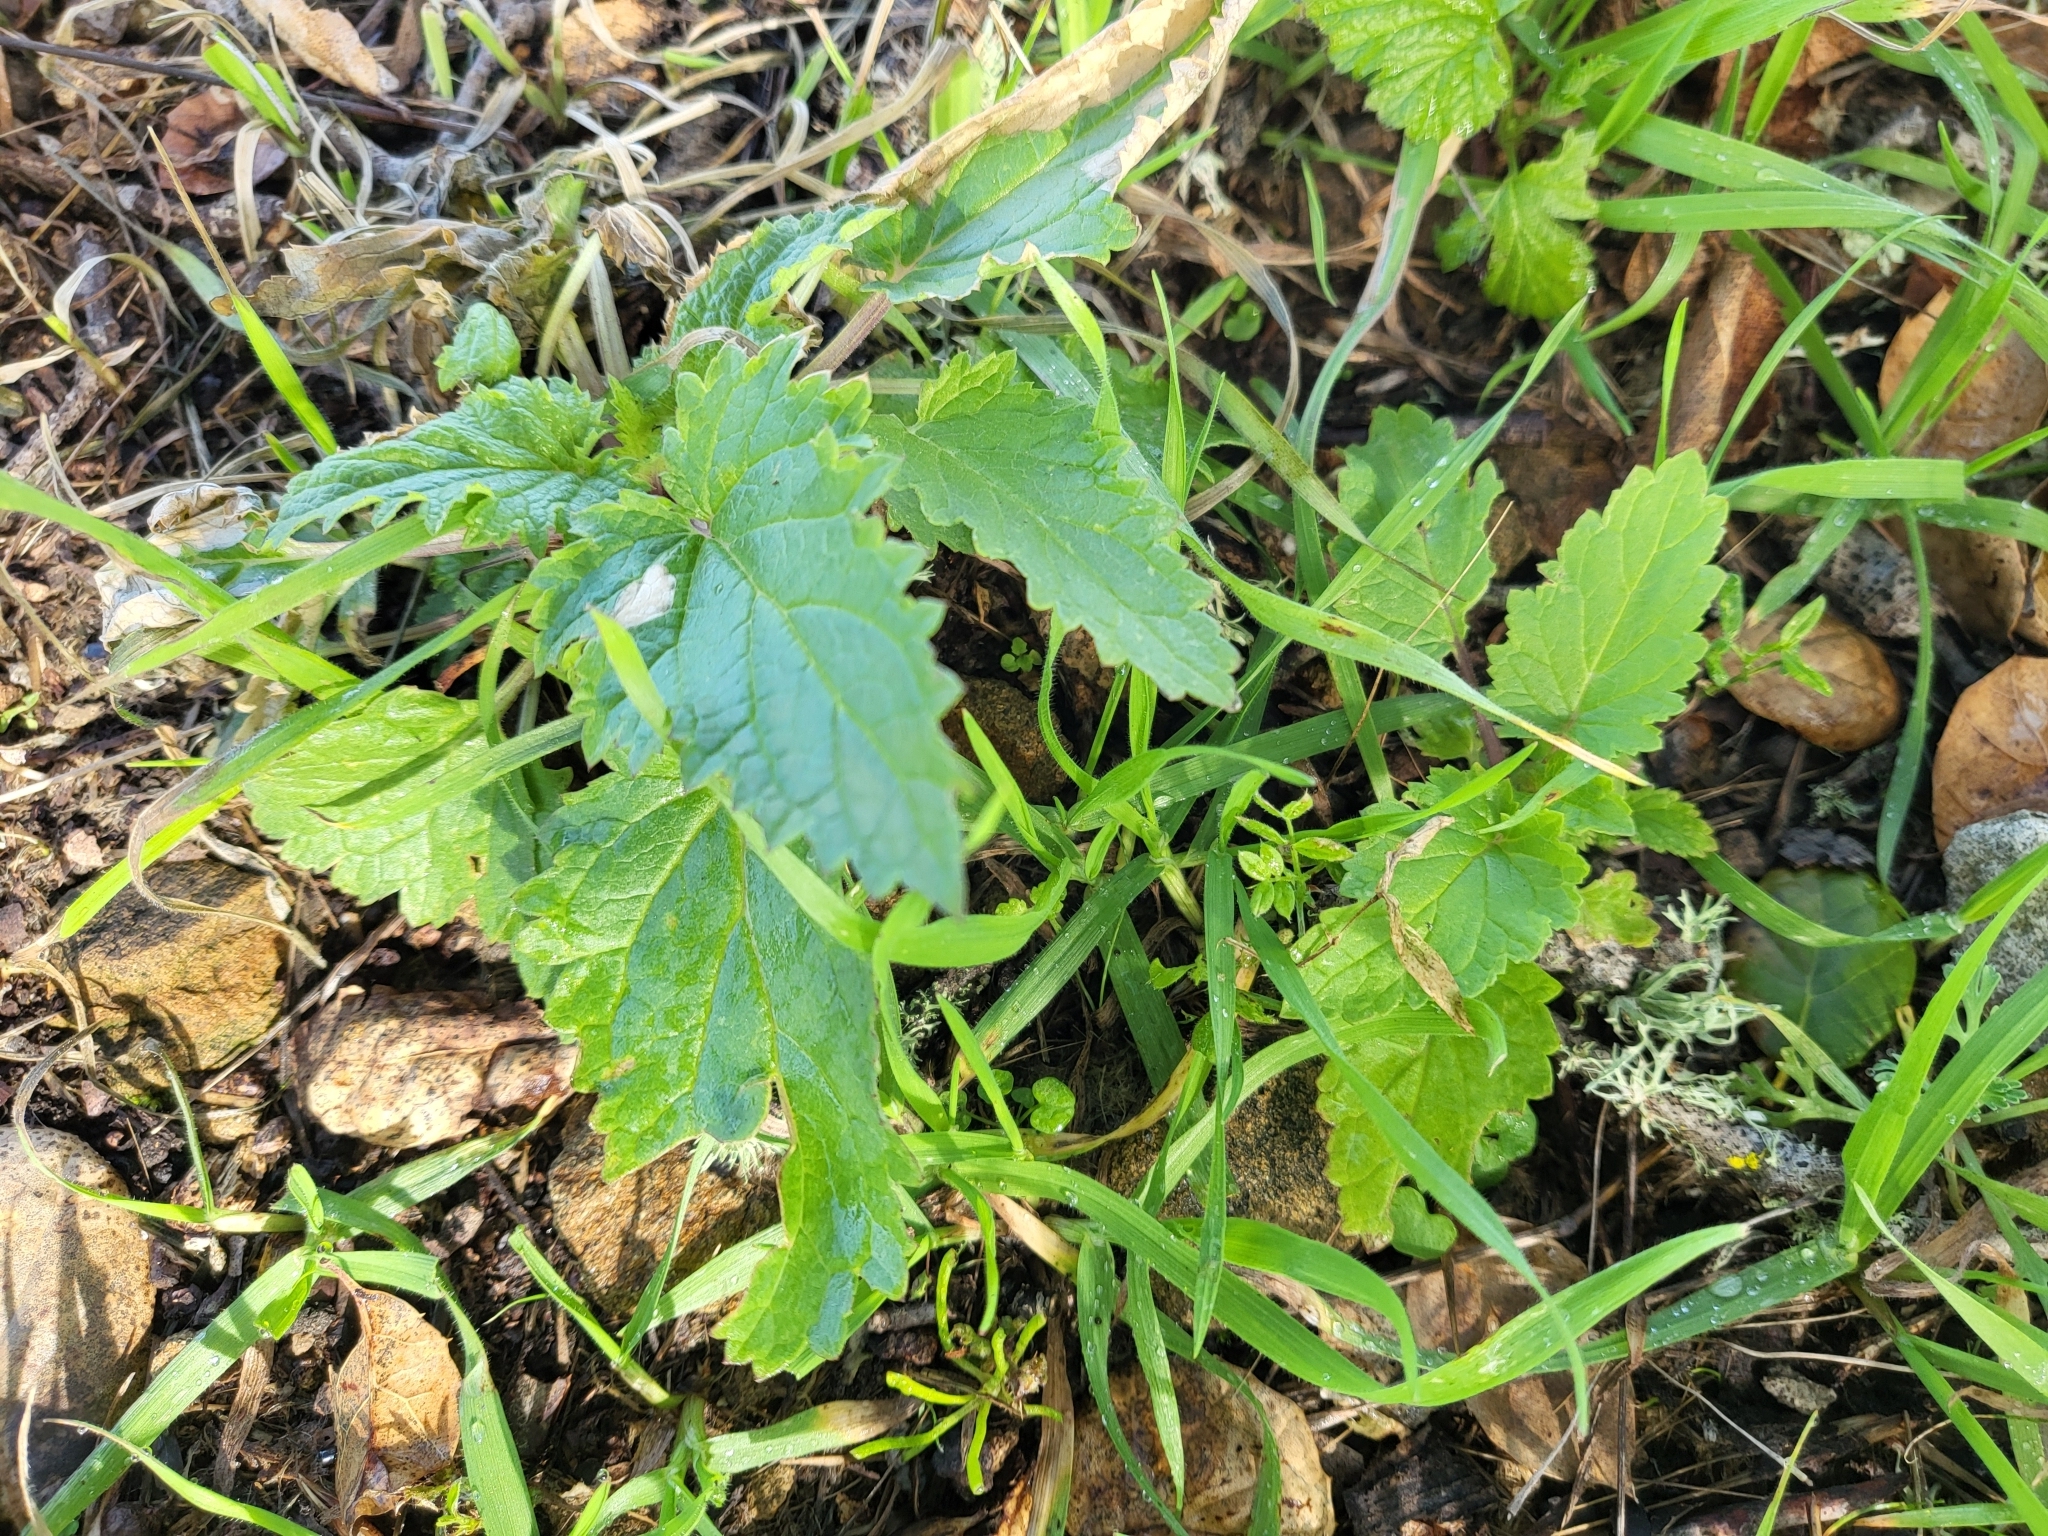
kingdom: Plantae
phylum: Tracheophyta
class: Magnoliopsida
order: Lamiales
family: Scrophulariaceae
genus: Scrophularia
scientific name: Scrophularia californica
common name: California figwort
